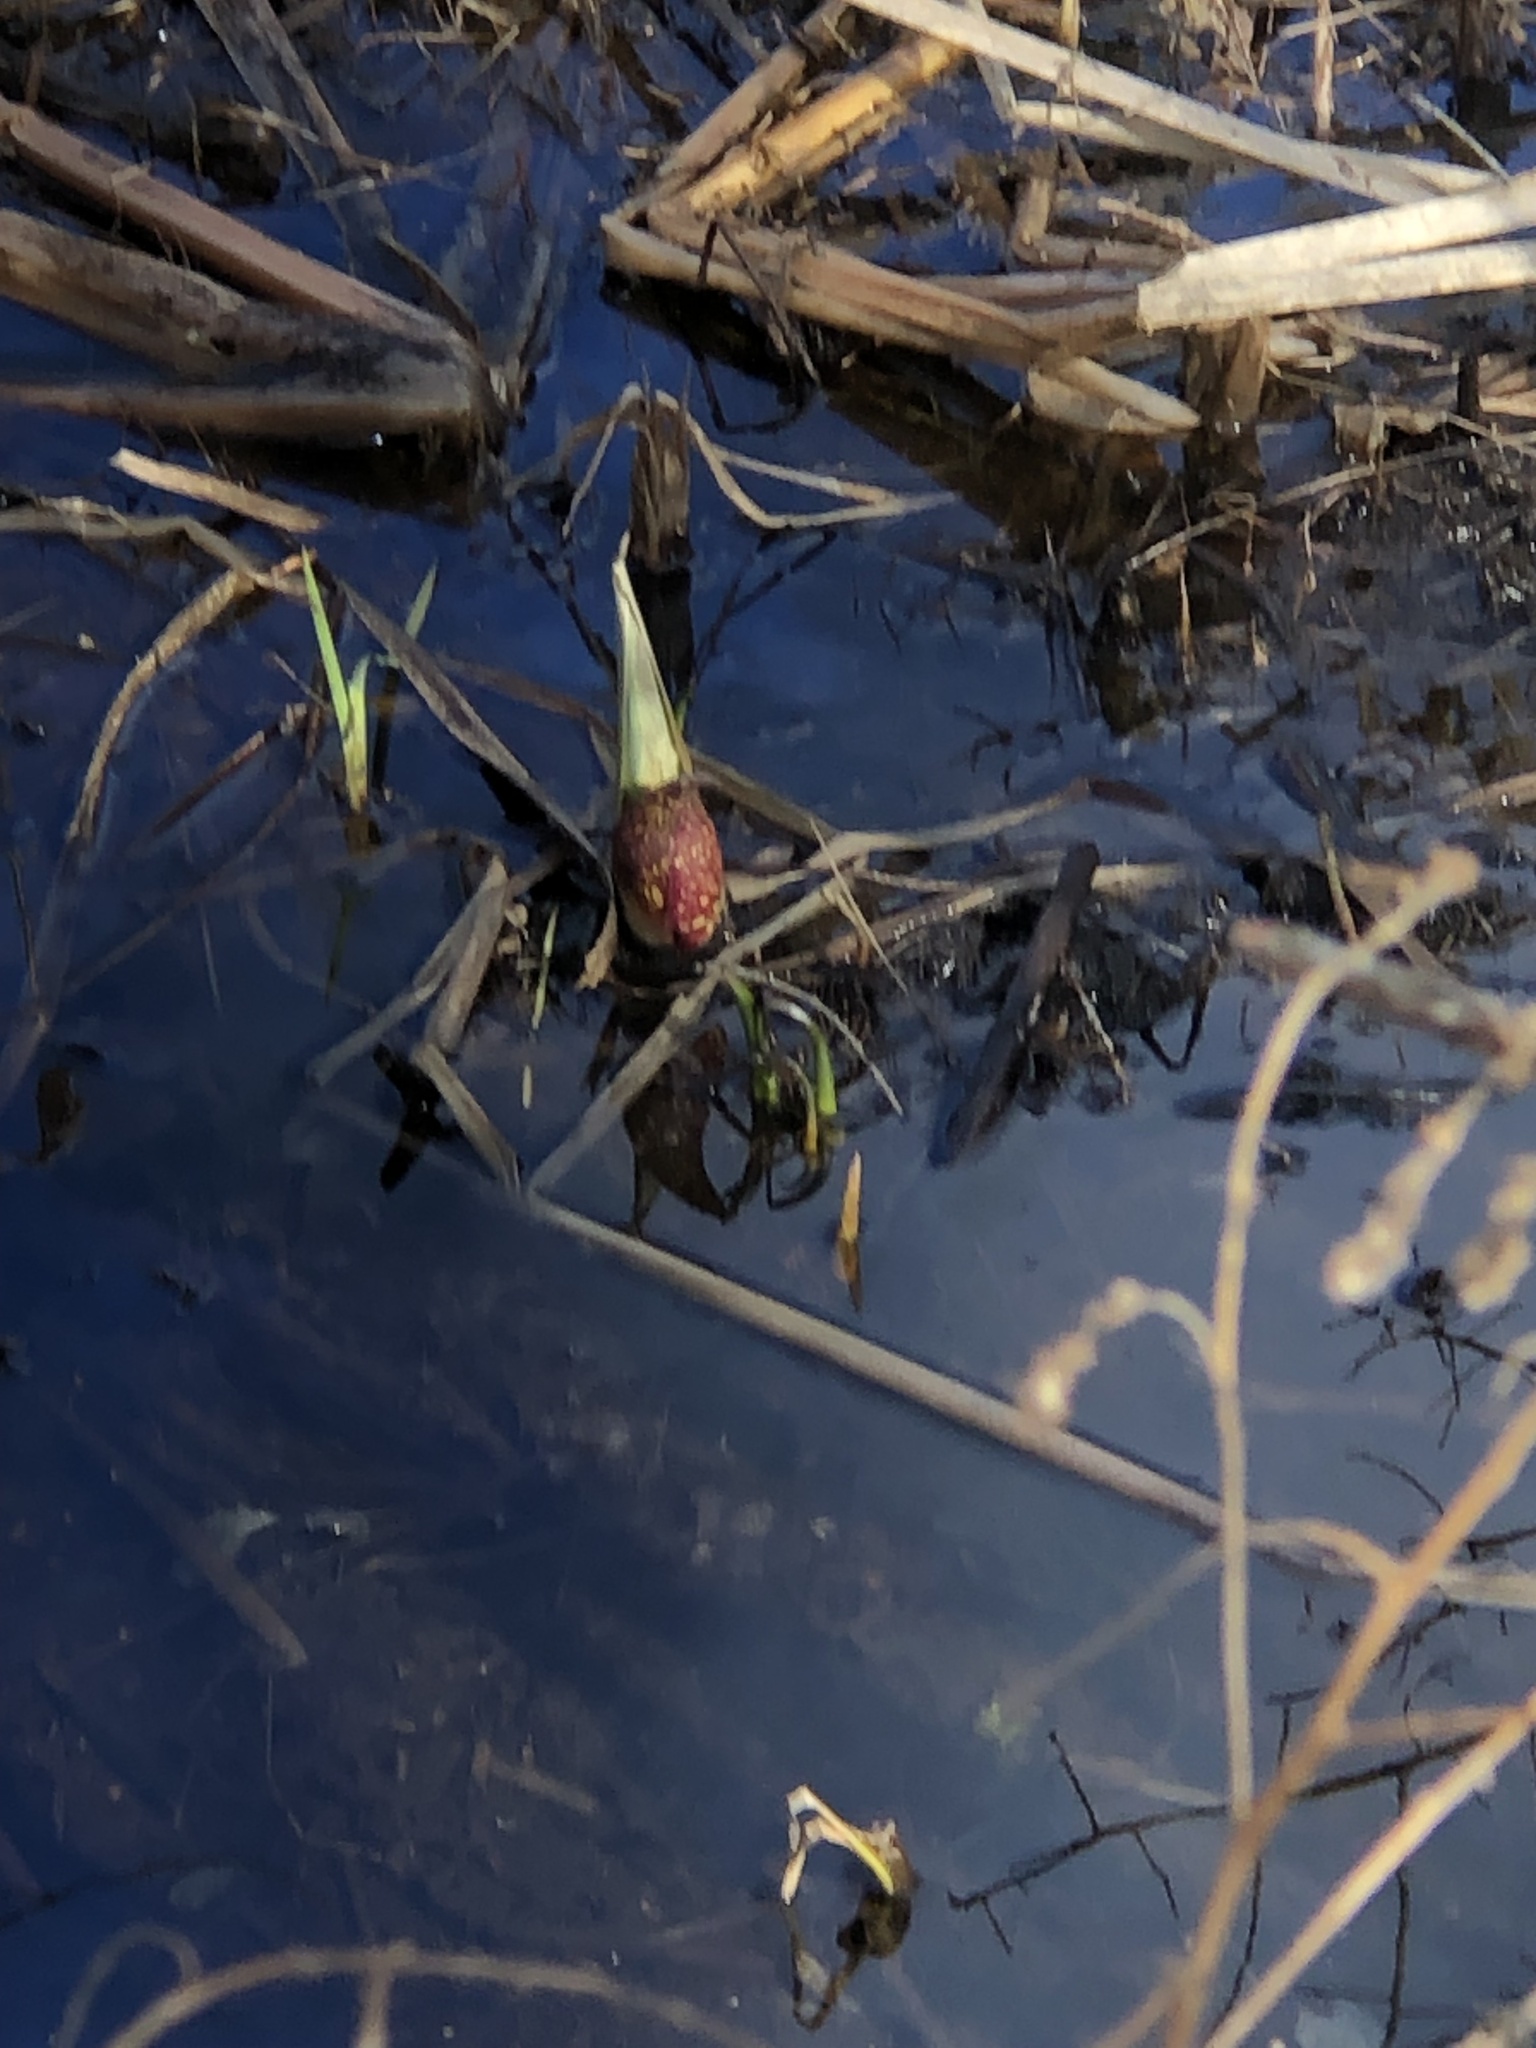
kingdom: Plantae
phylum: Tracheophyta
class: Liliopsida
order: Alismatales
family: Araceae
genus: Symplocarpus
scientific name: Symplocarpus foetidus
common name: Eastern skunk cabbage
